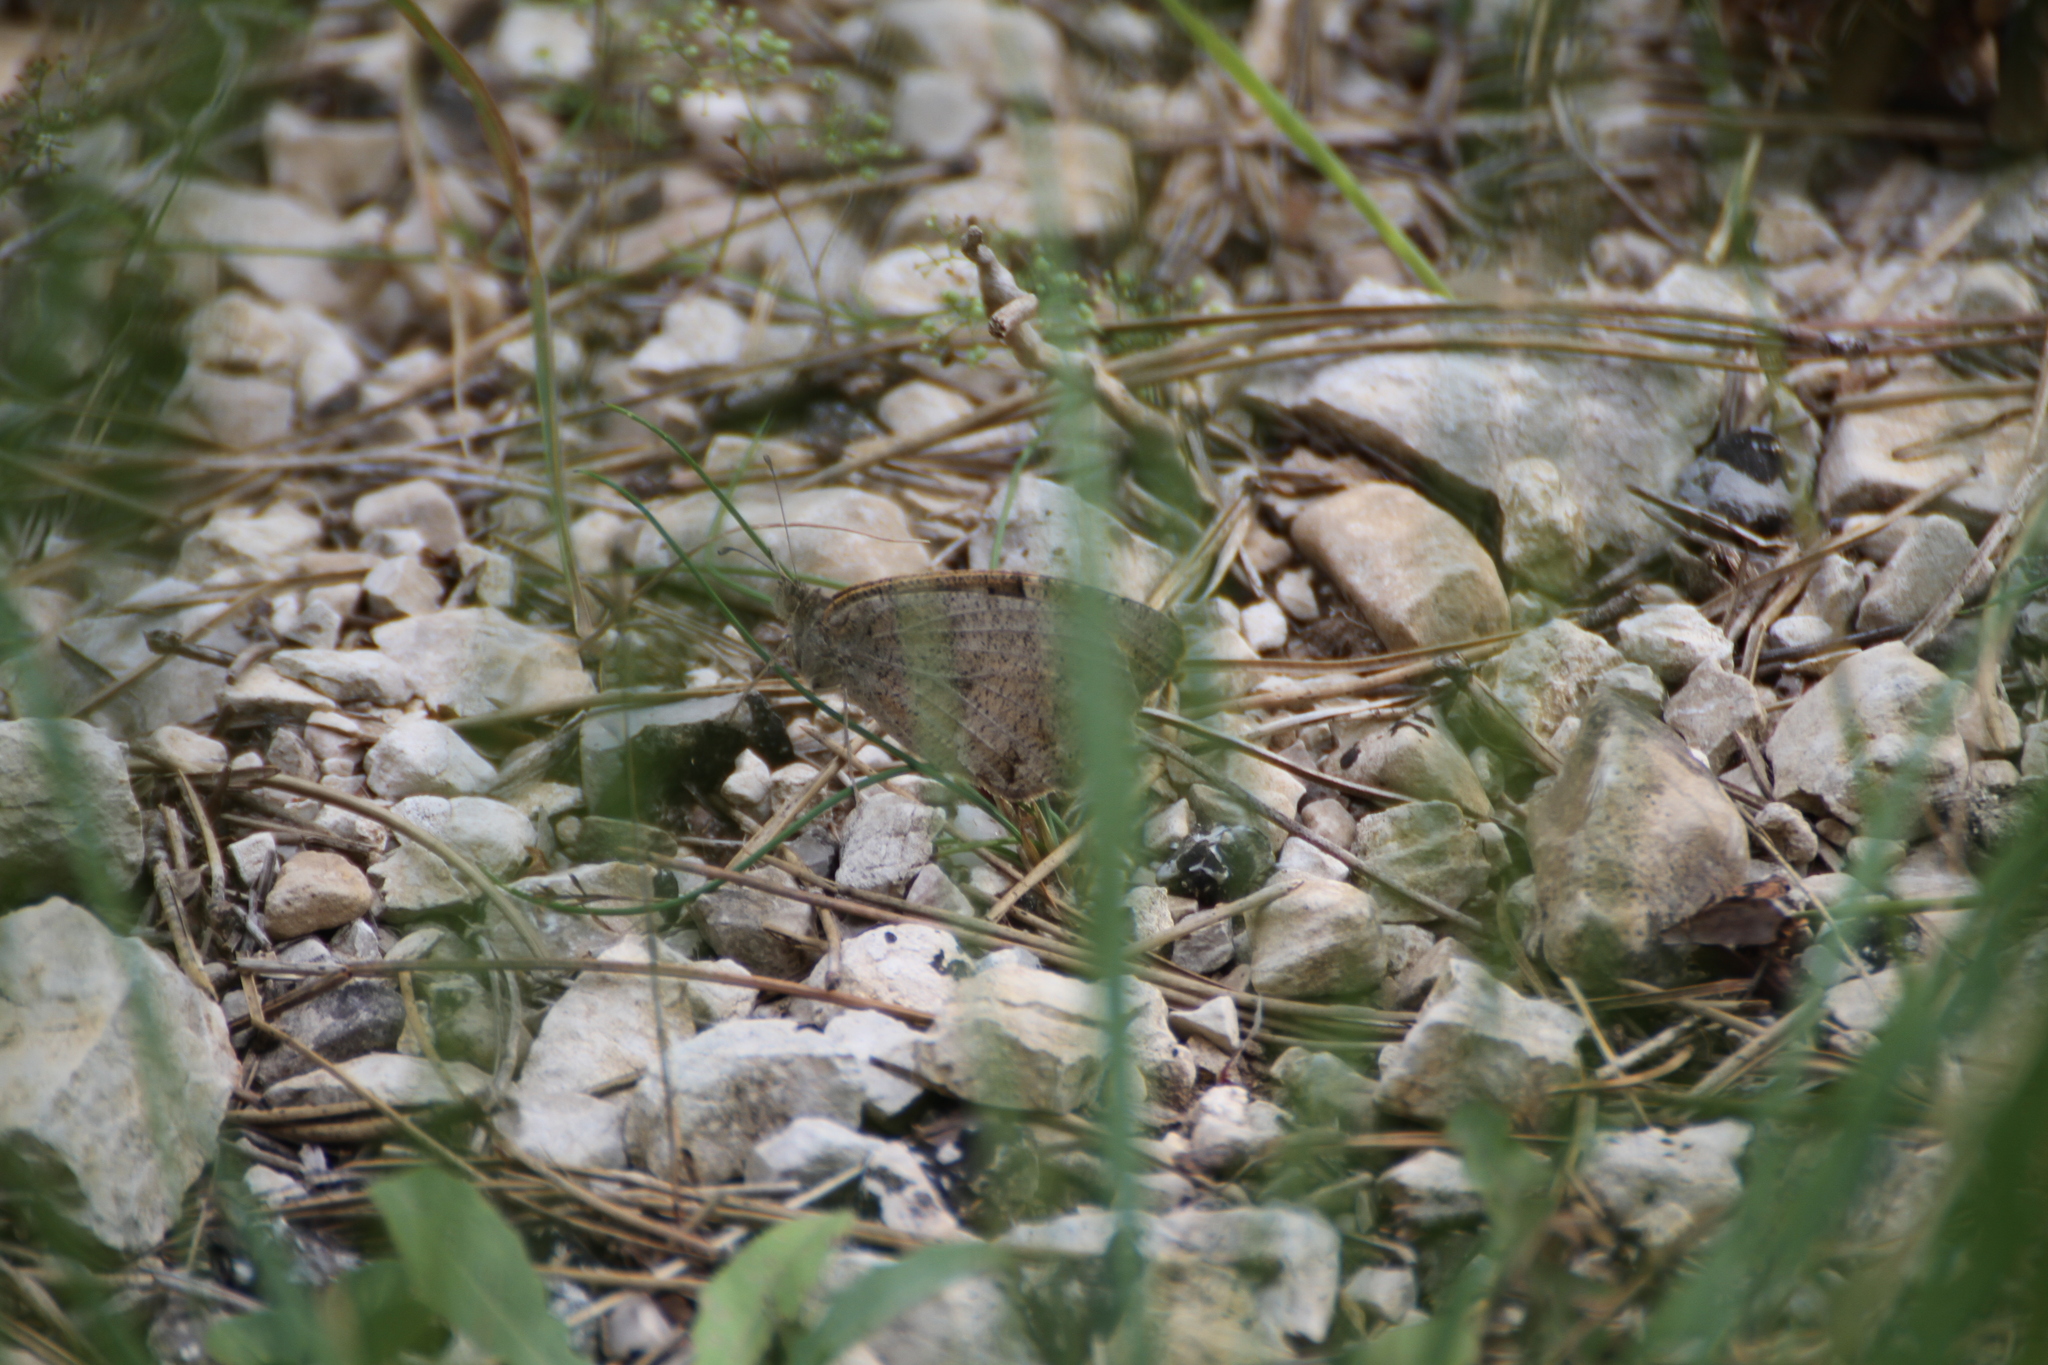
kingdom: Animalia
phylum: Arthropoda
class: Insecta
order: Lepidoptera
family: Nymphalidae
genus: Satyrus
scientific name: Satyrus briseis
